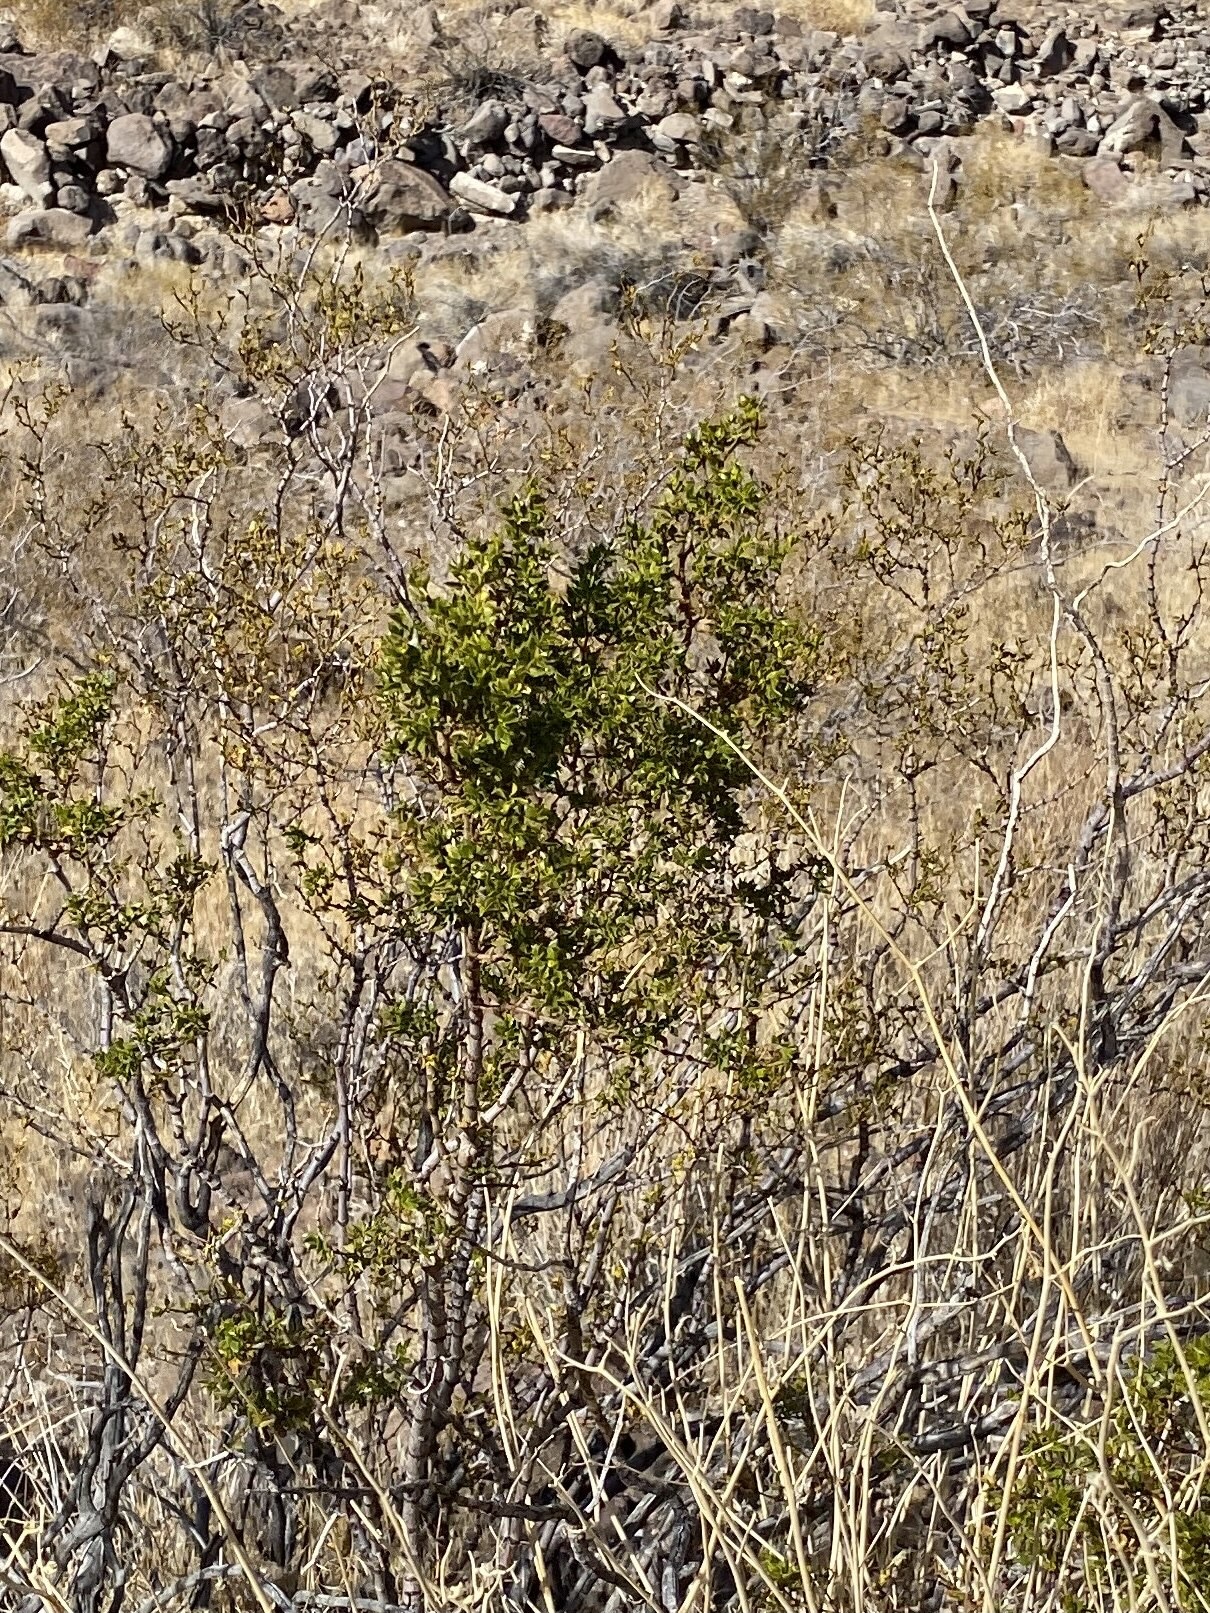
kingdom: Plantae
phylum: Tracheophyta
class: Magnoliopsida
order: Zygophyllales
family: Zygophyllaceae
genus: Larrea
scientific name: Larrea tridentata
